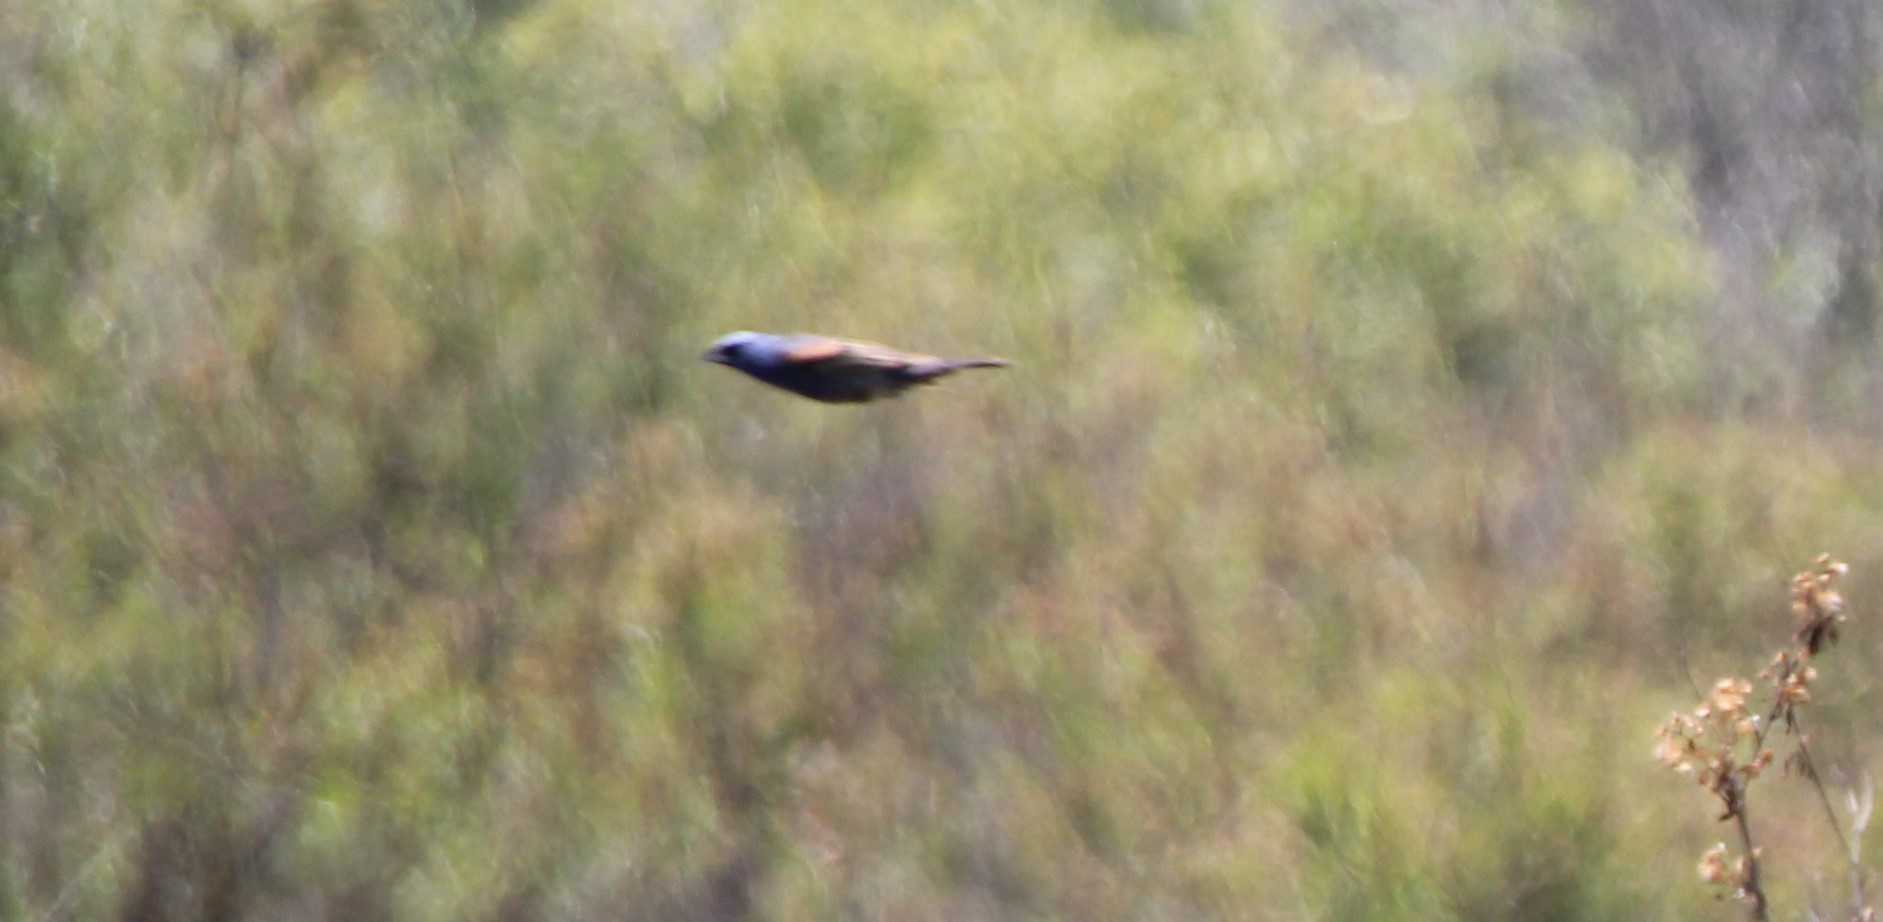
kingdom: Animalia
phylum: Chordata
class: Aves
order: Passeriformes
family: Cardinalidae
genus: Passerina
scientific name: Passerina caerulea
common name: Blue grosbeak
